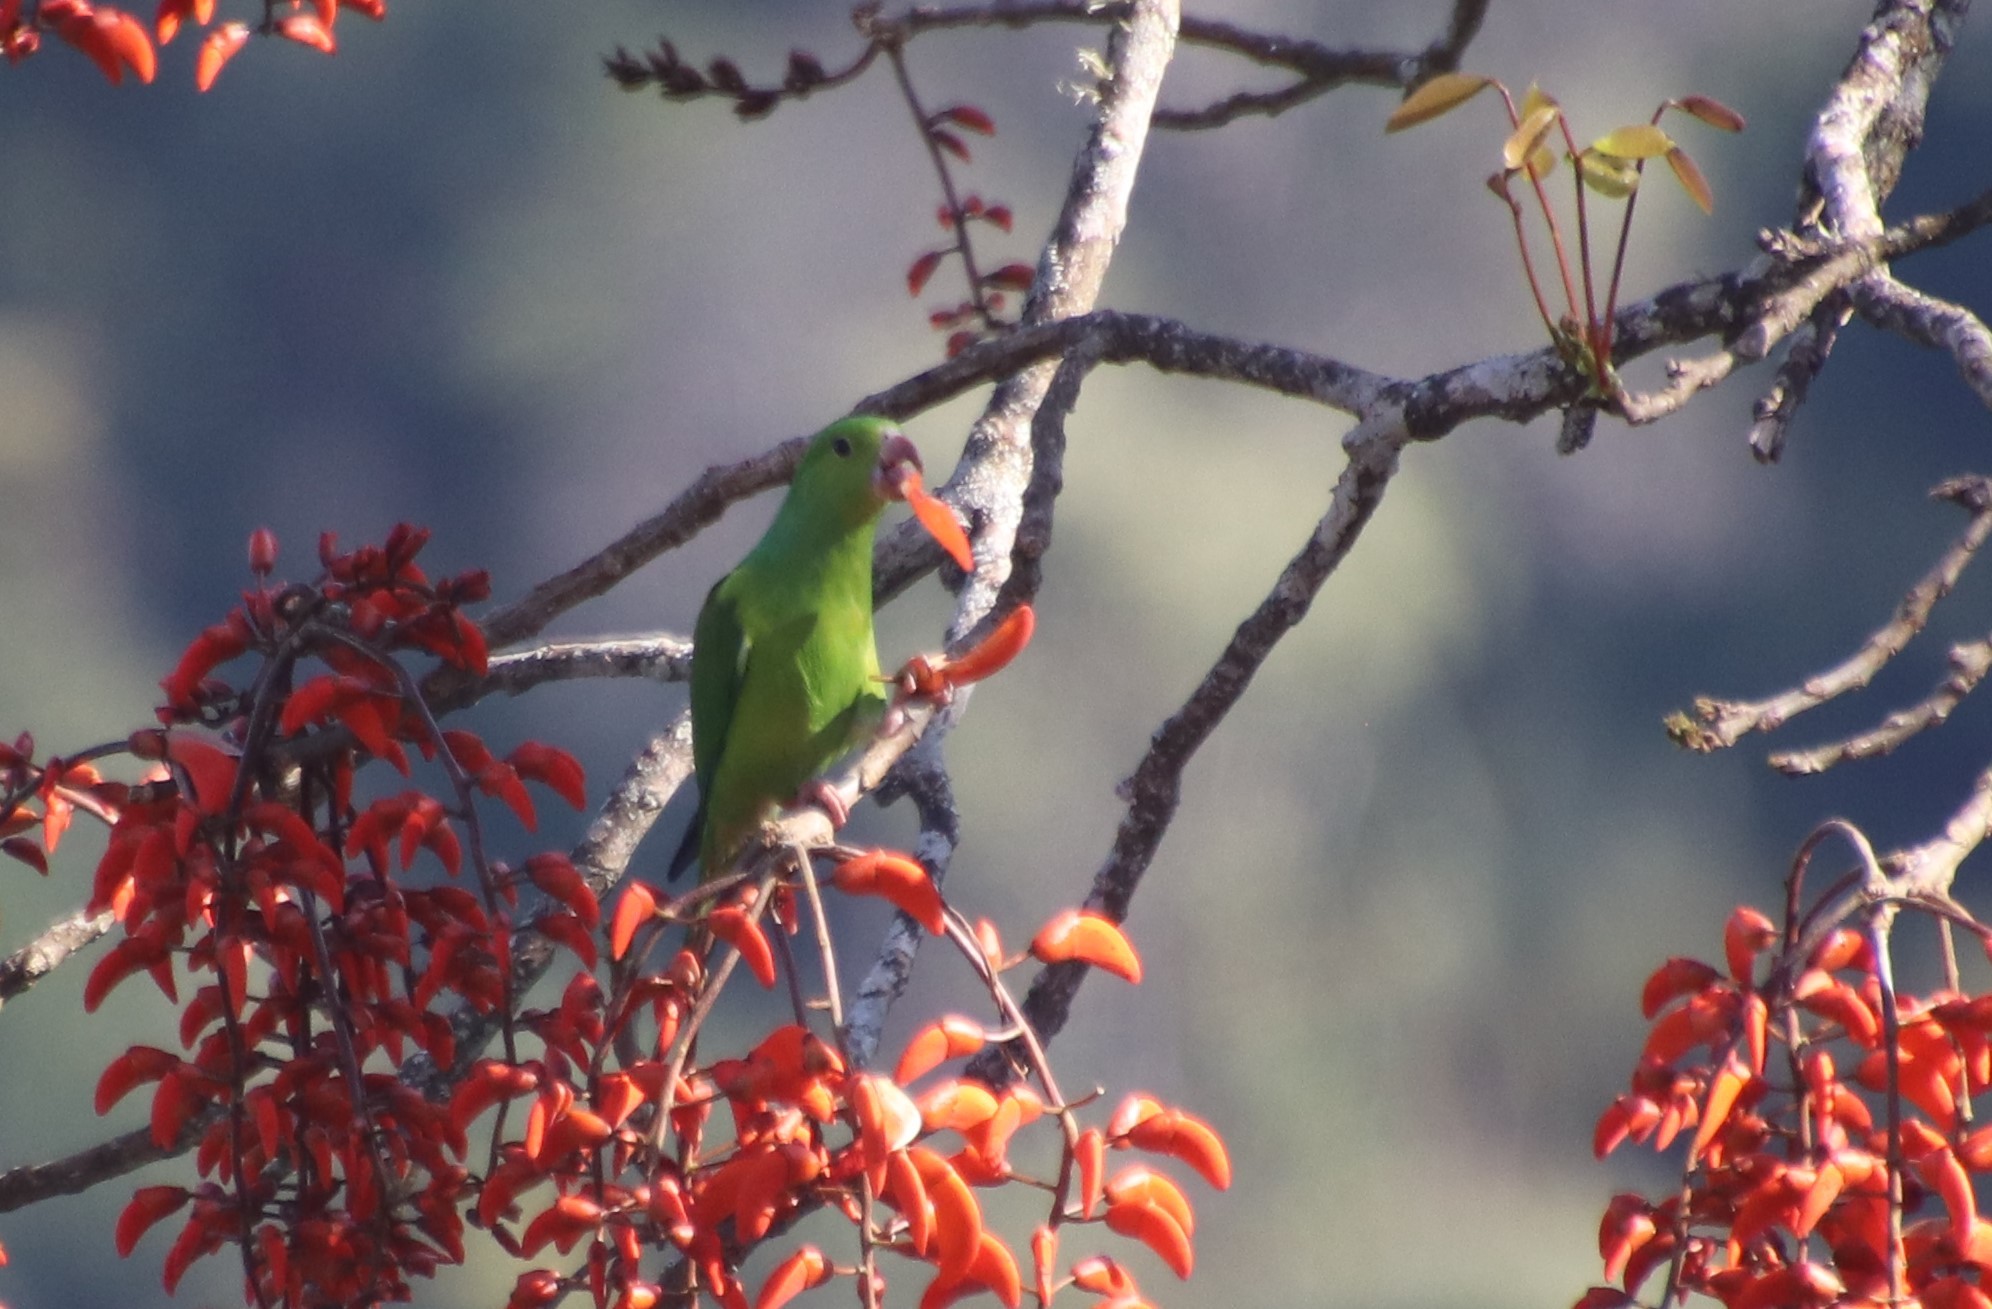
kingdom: Animalia
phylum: Chordata
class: Aves
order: Psittaciformes
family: Psittacidae
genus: Brotogeris
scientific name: Brotogeris tirica
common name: Plain parakeet
